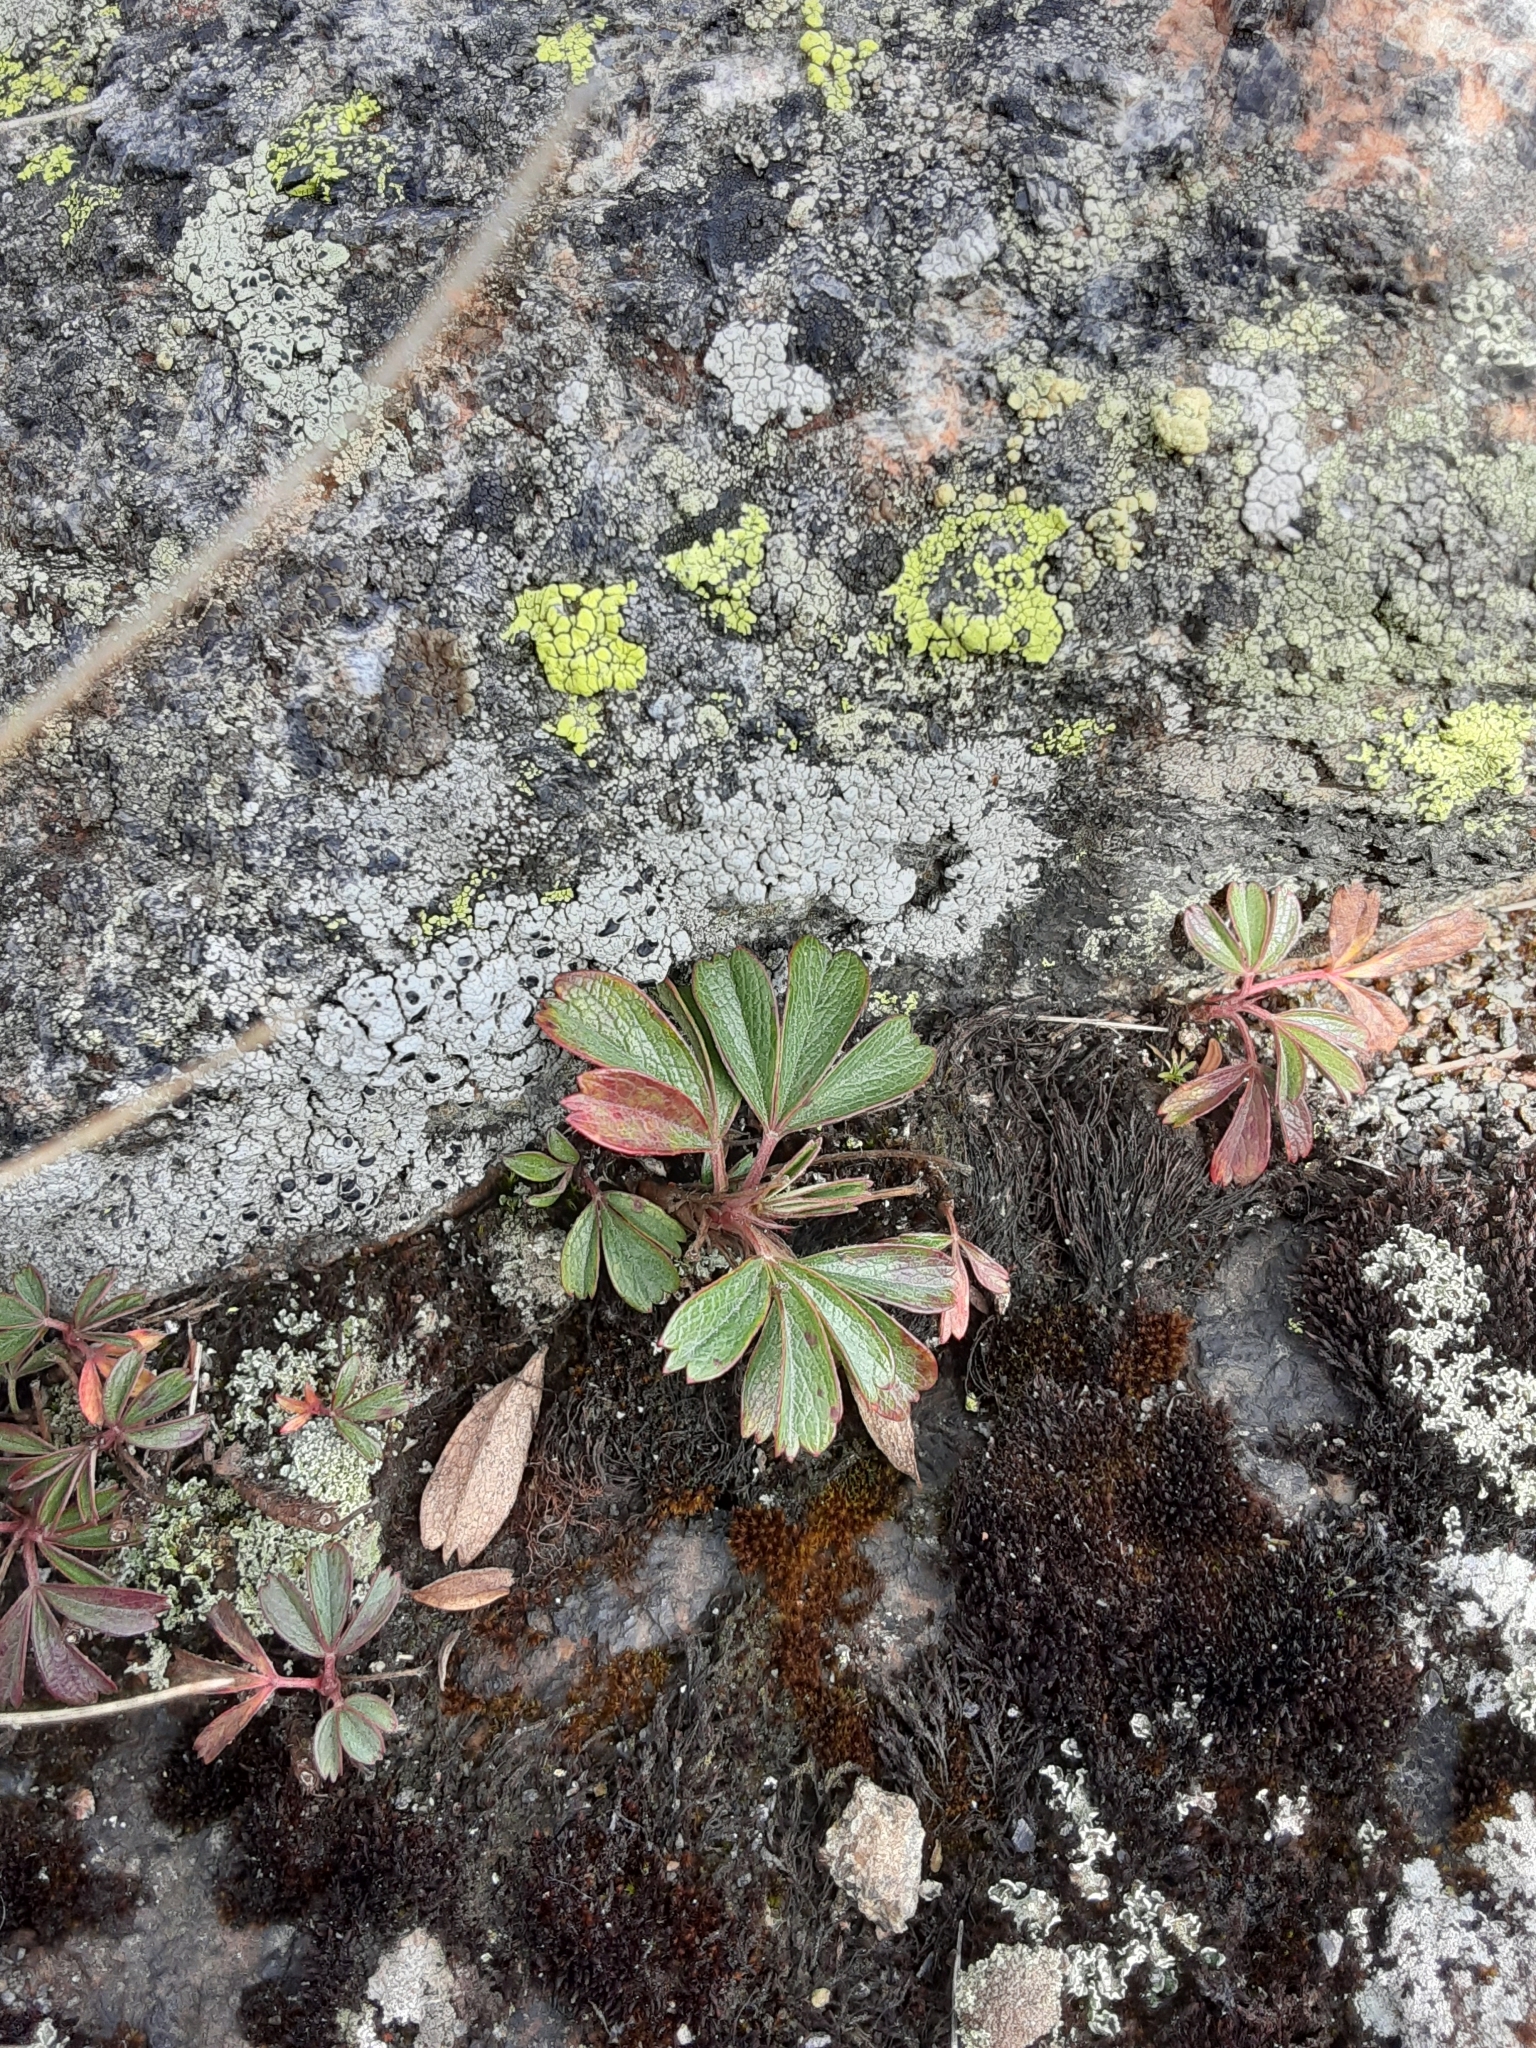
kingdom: Plantae
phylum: Tracheophyta
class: Magnoliopsida
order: Rosales
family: Rosaceae
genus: Sibbaldia
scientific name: Sibbaldia tridentata
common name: Three-toothed cinquefoil
